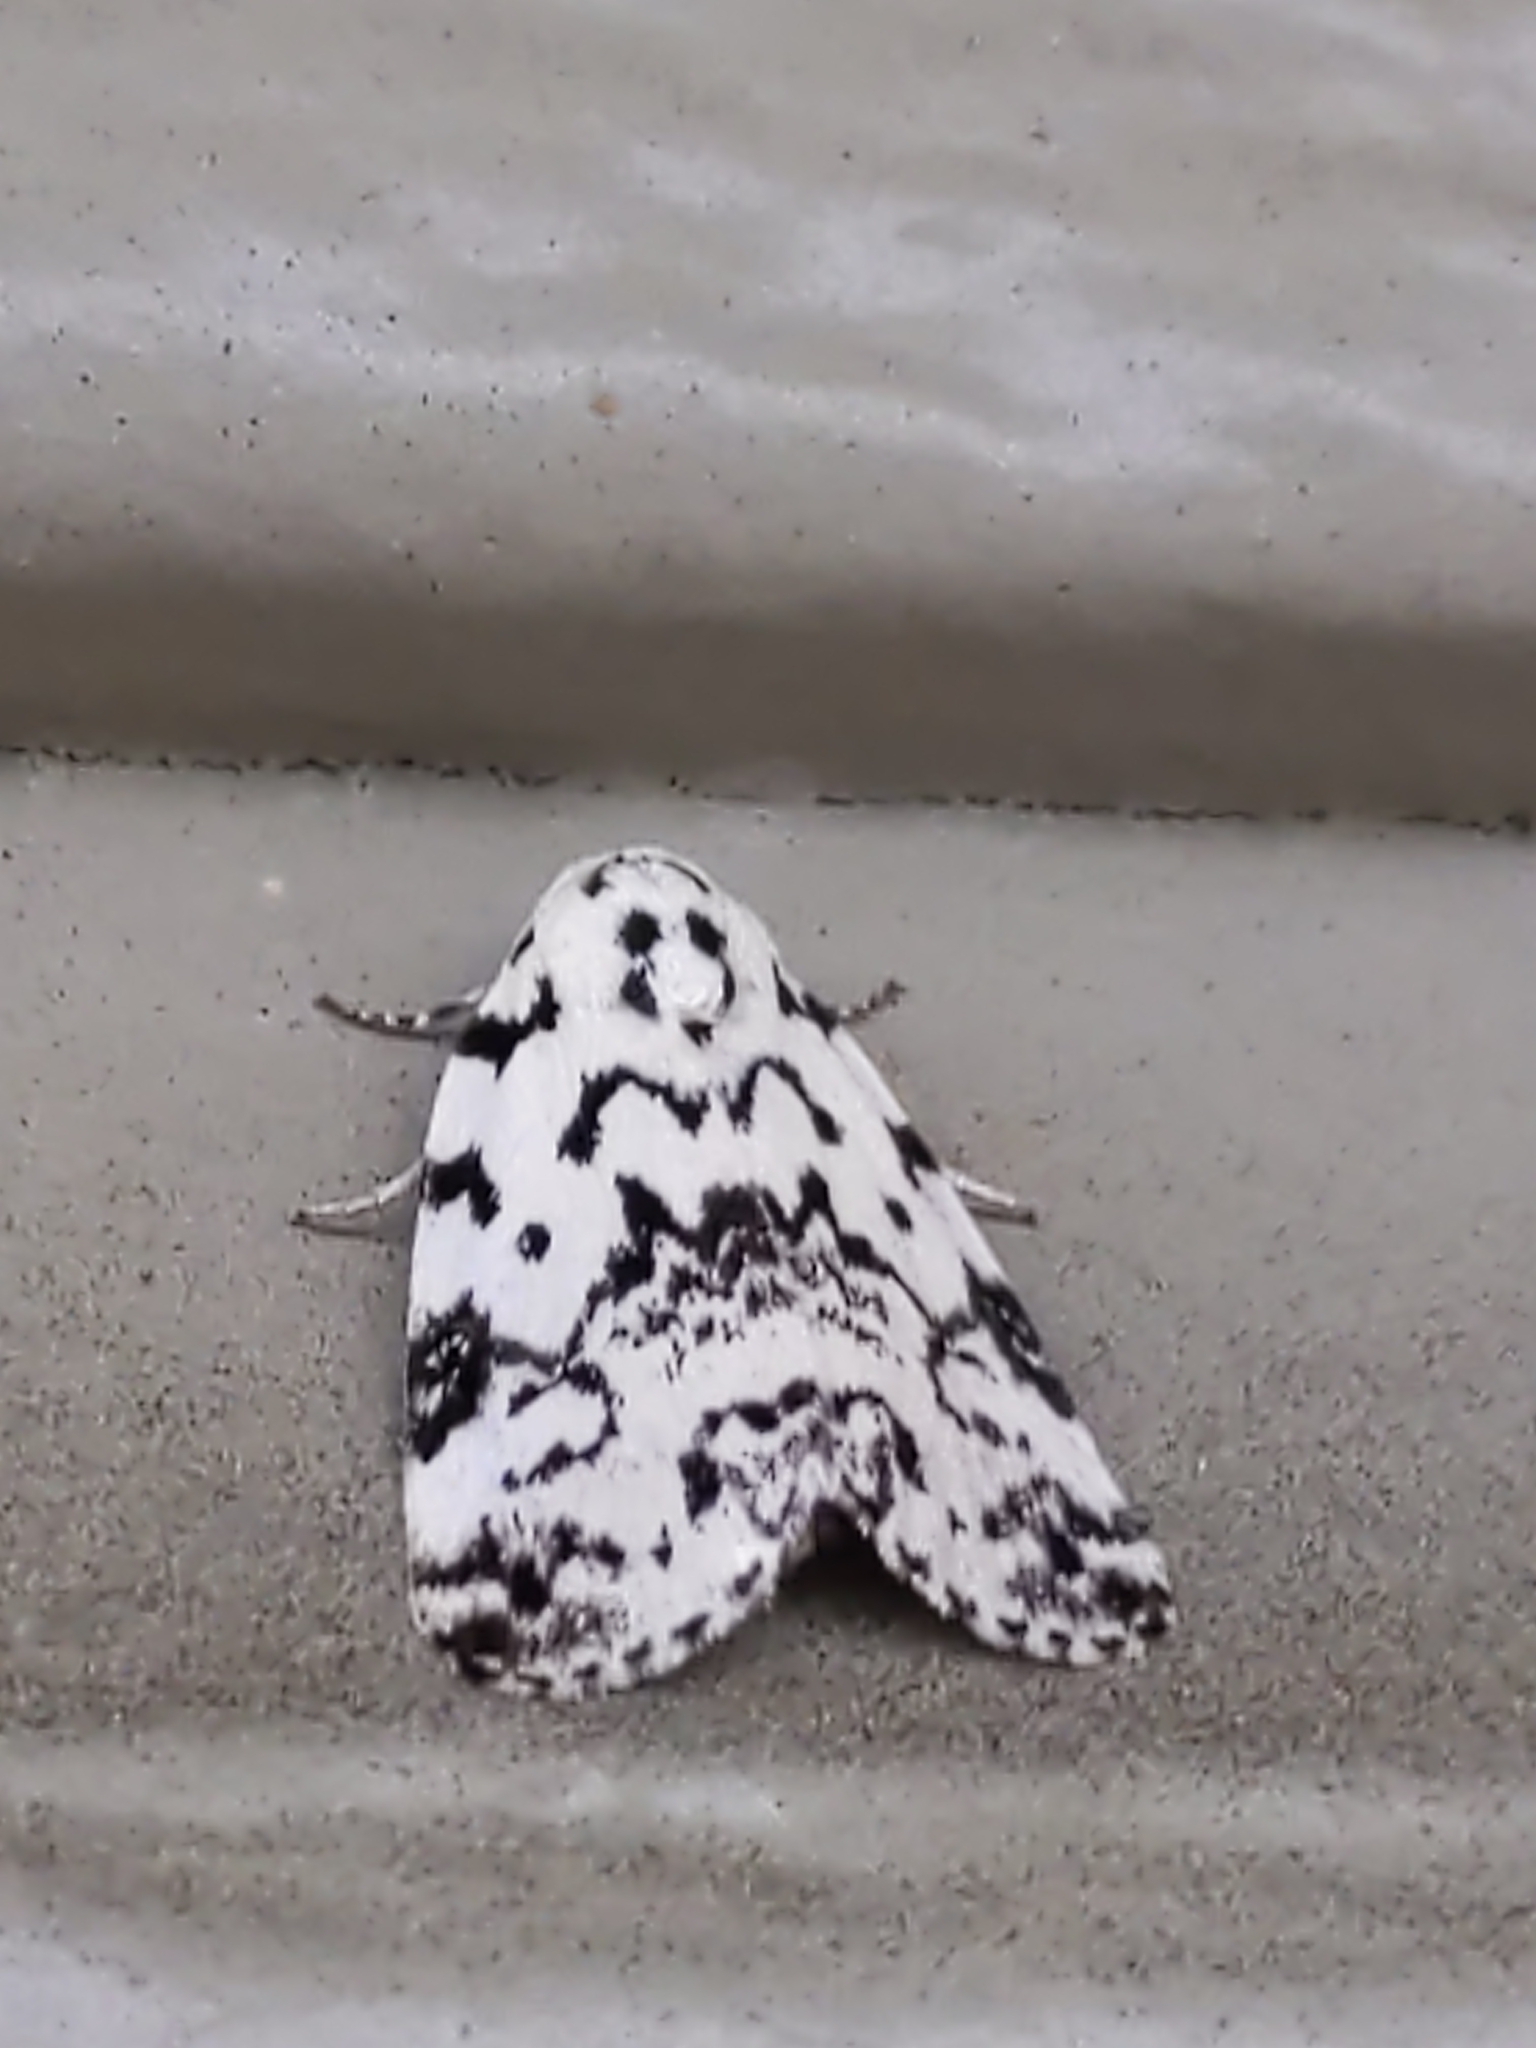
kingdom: Animalia
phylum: Arthropoda
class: Insecta
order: Lepidoptera
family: Noctuidae
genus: Polygrammate
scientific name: Polygrammate hebraeicum
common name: Hebrew moth
